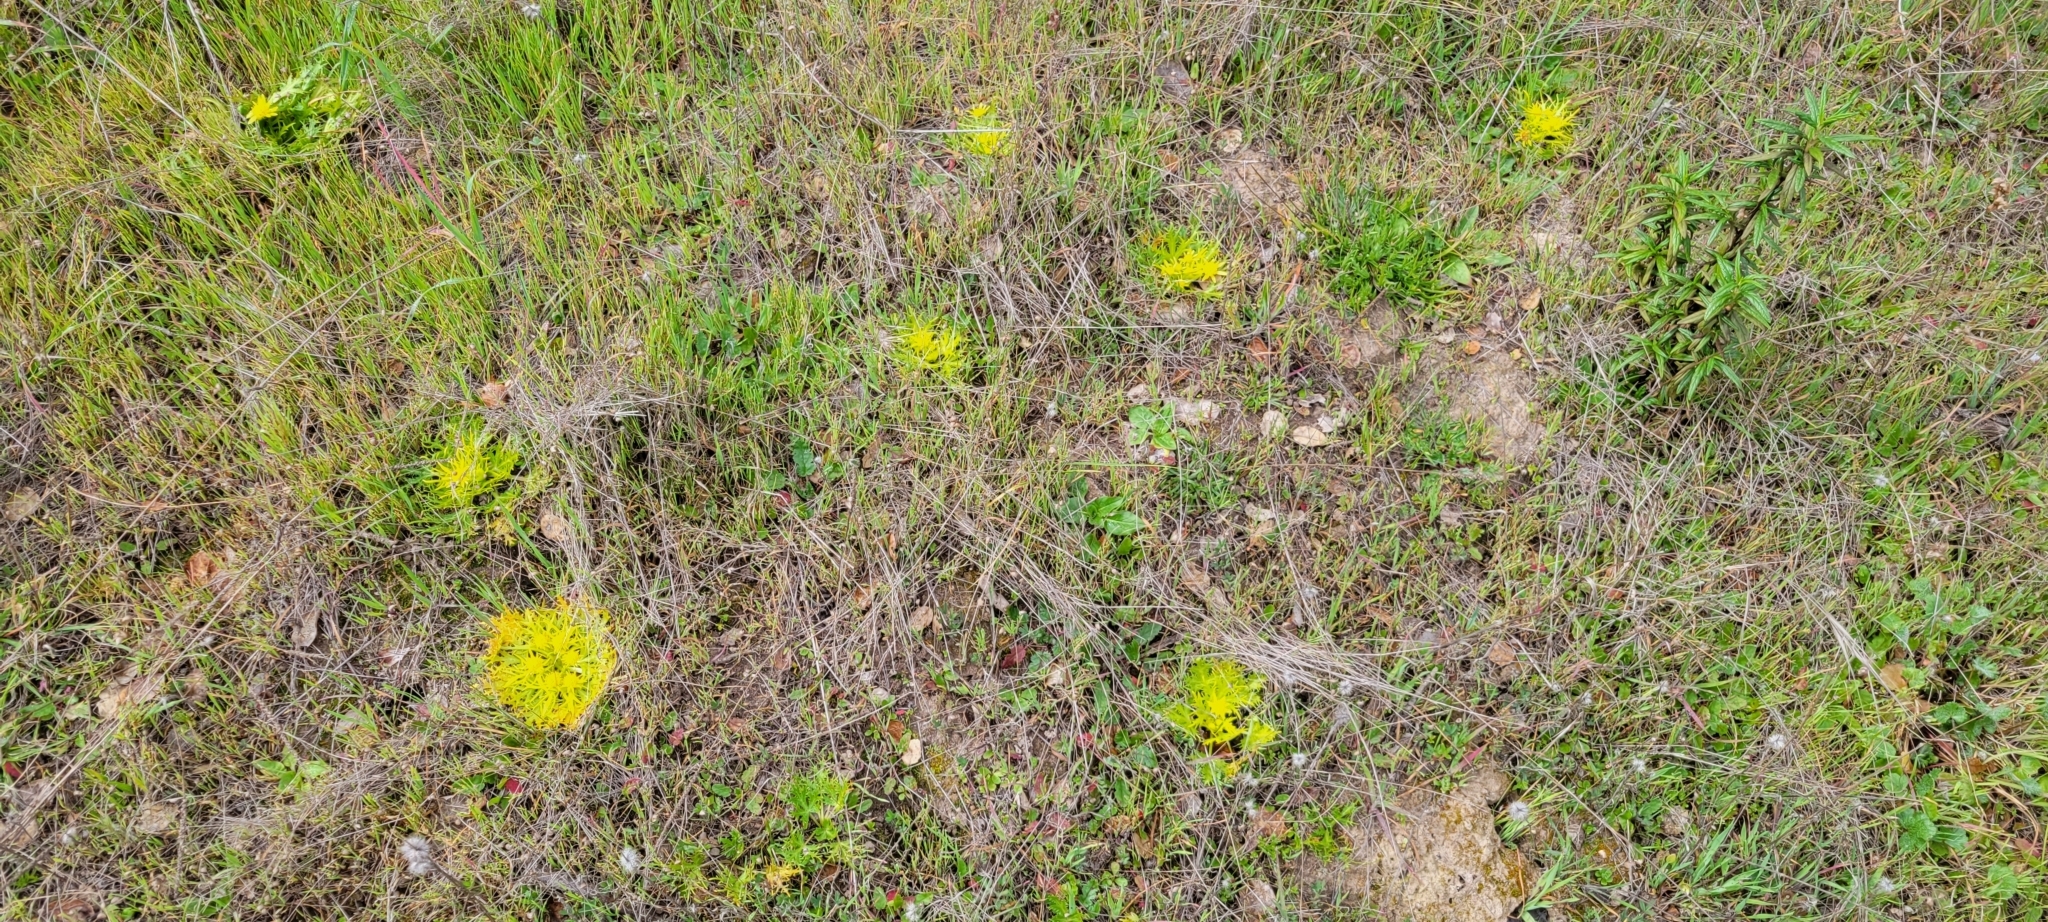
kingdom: Plantae
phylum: Tracheophyta
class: Magnoliopsida
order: Apiales
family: Apiaceae
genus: Sanicula
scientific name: Sanicula arctopoides
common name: Footsteps-of-spring
